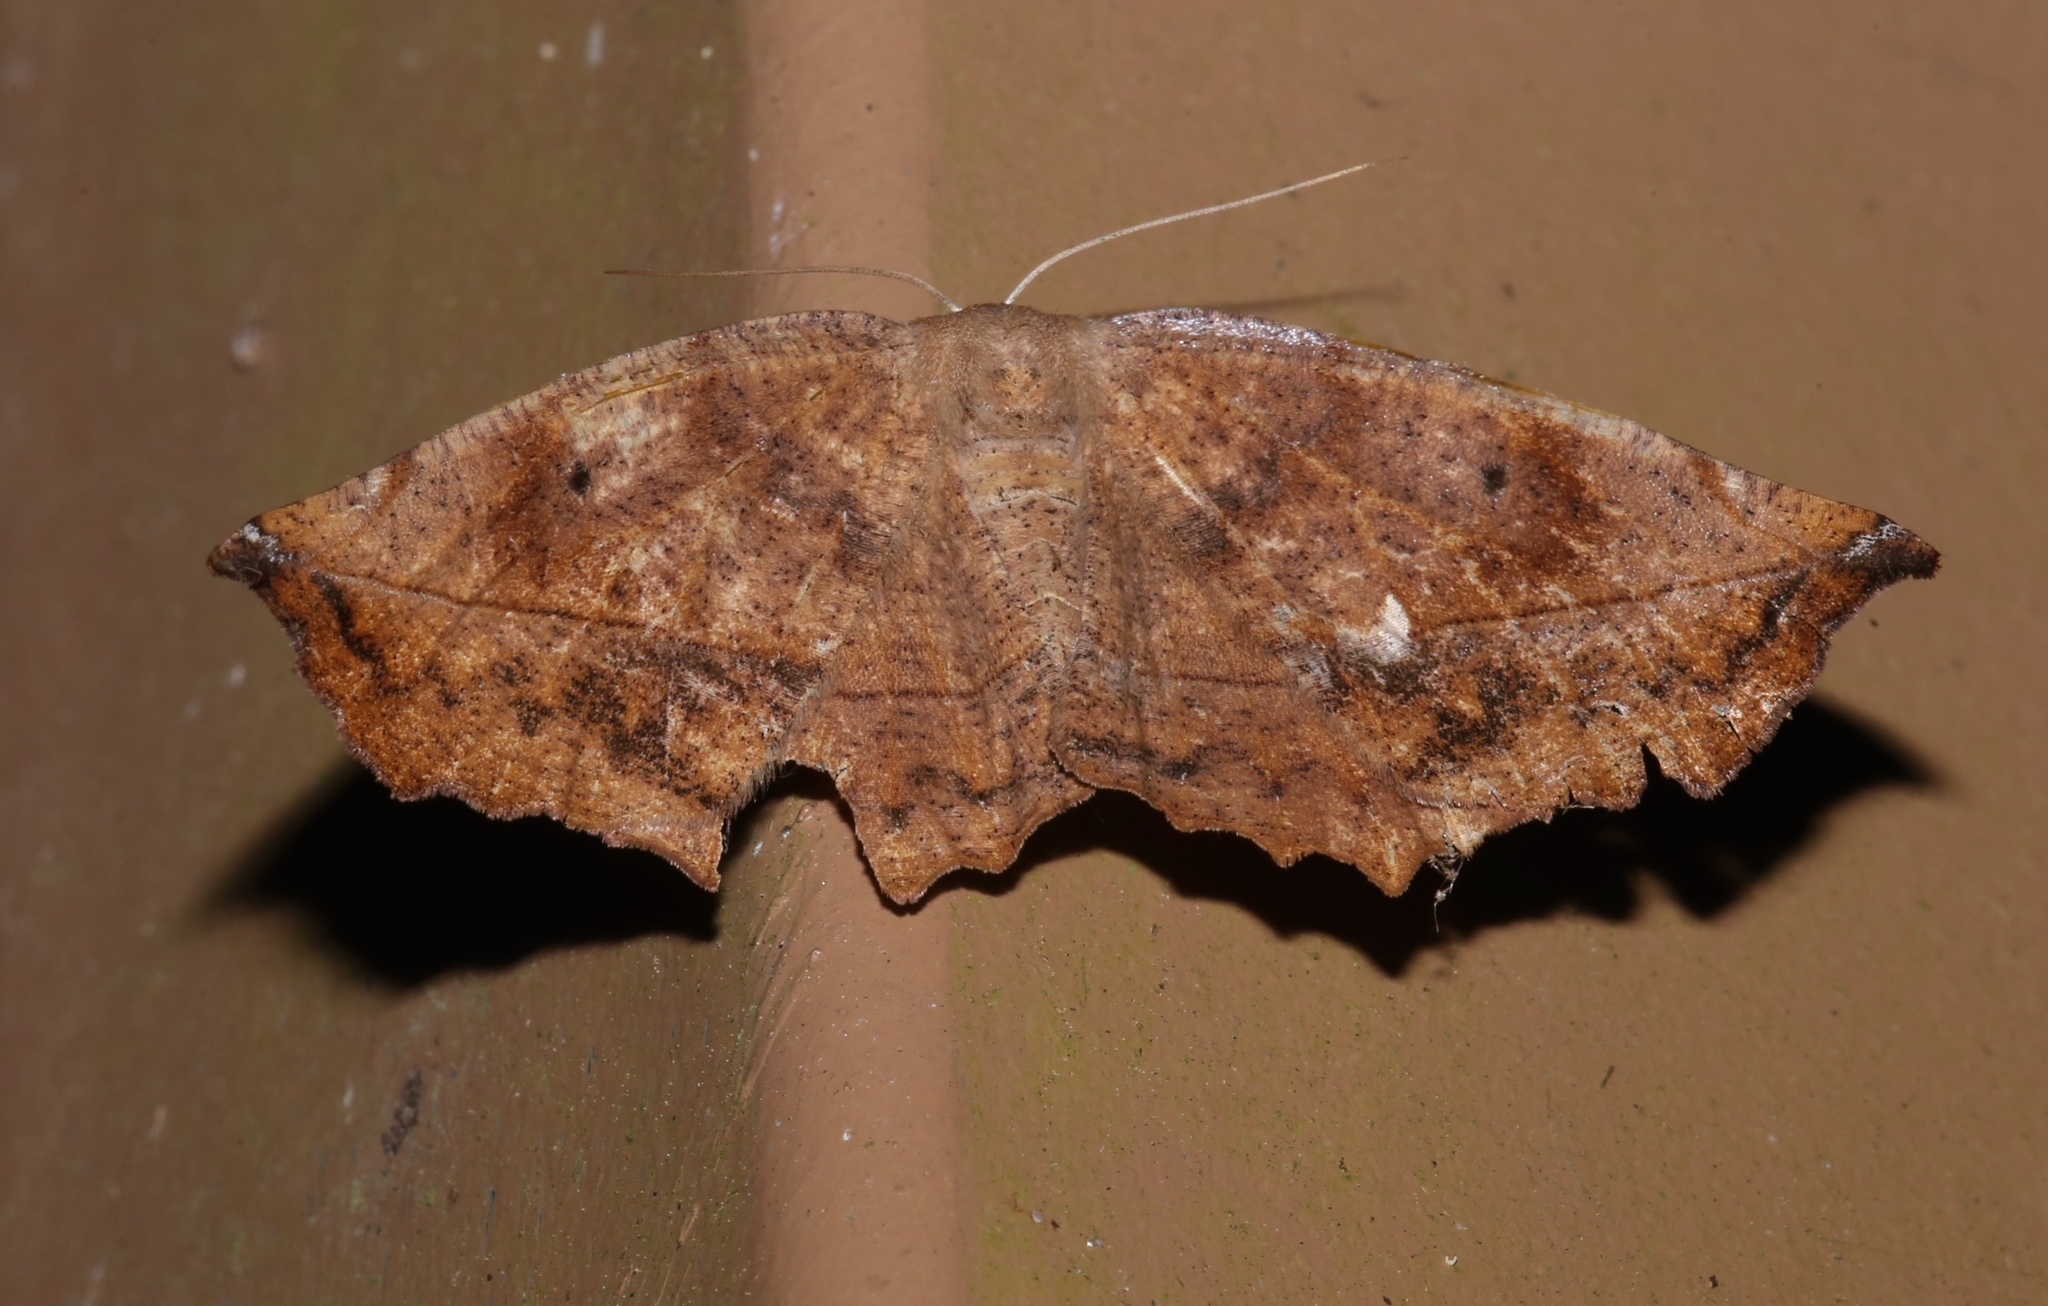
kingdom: Animalia
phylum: Arthropoda
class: Insecta
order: Lepidoptera
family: Geometridae
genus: Eutrapela
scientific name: Eutrapela clemataria
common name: Curved-toothed geometer
